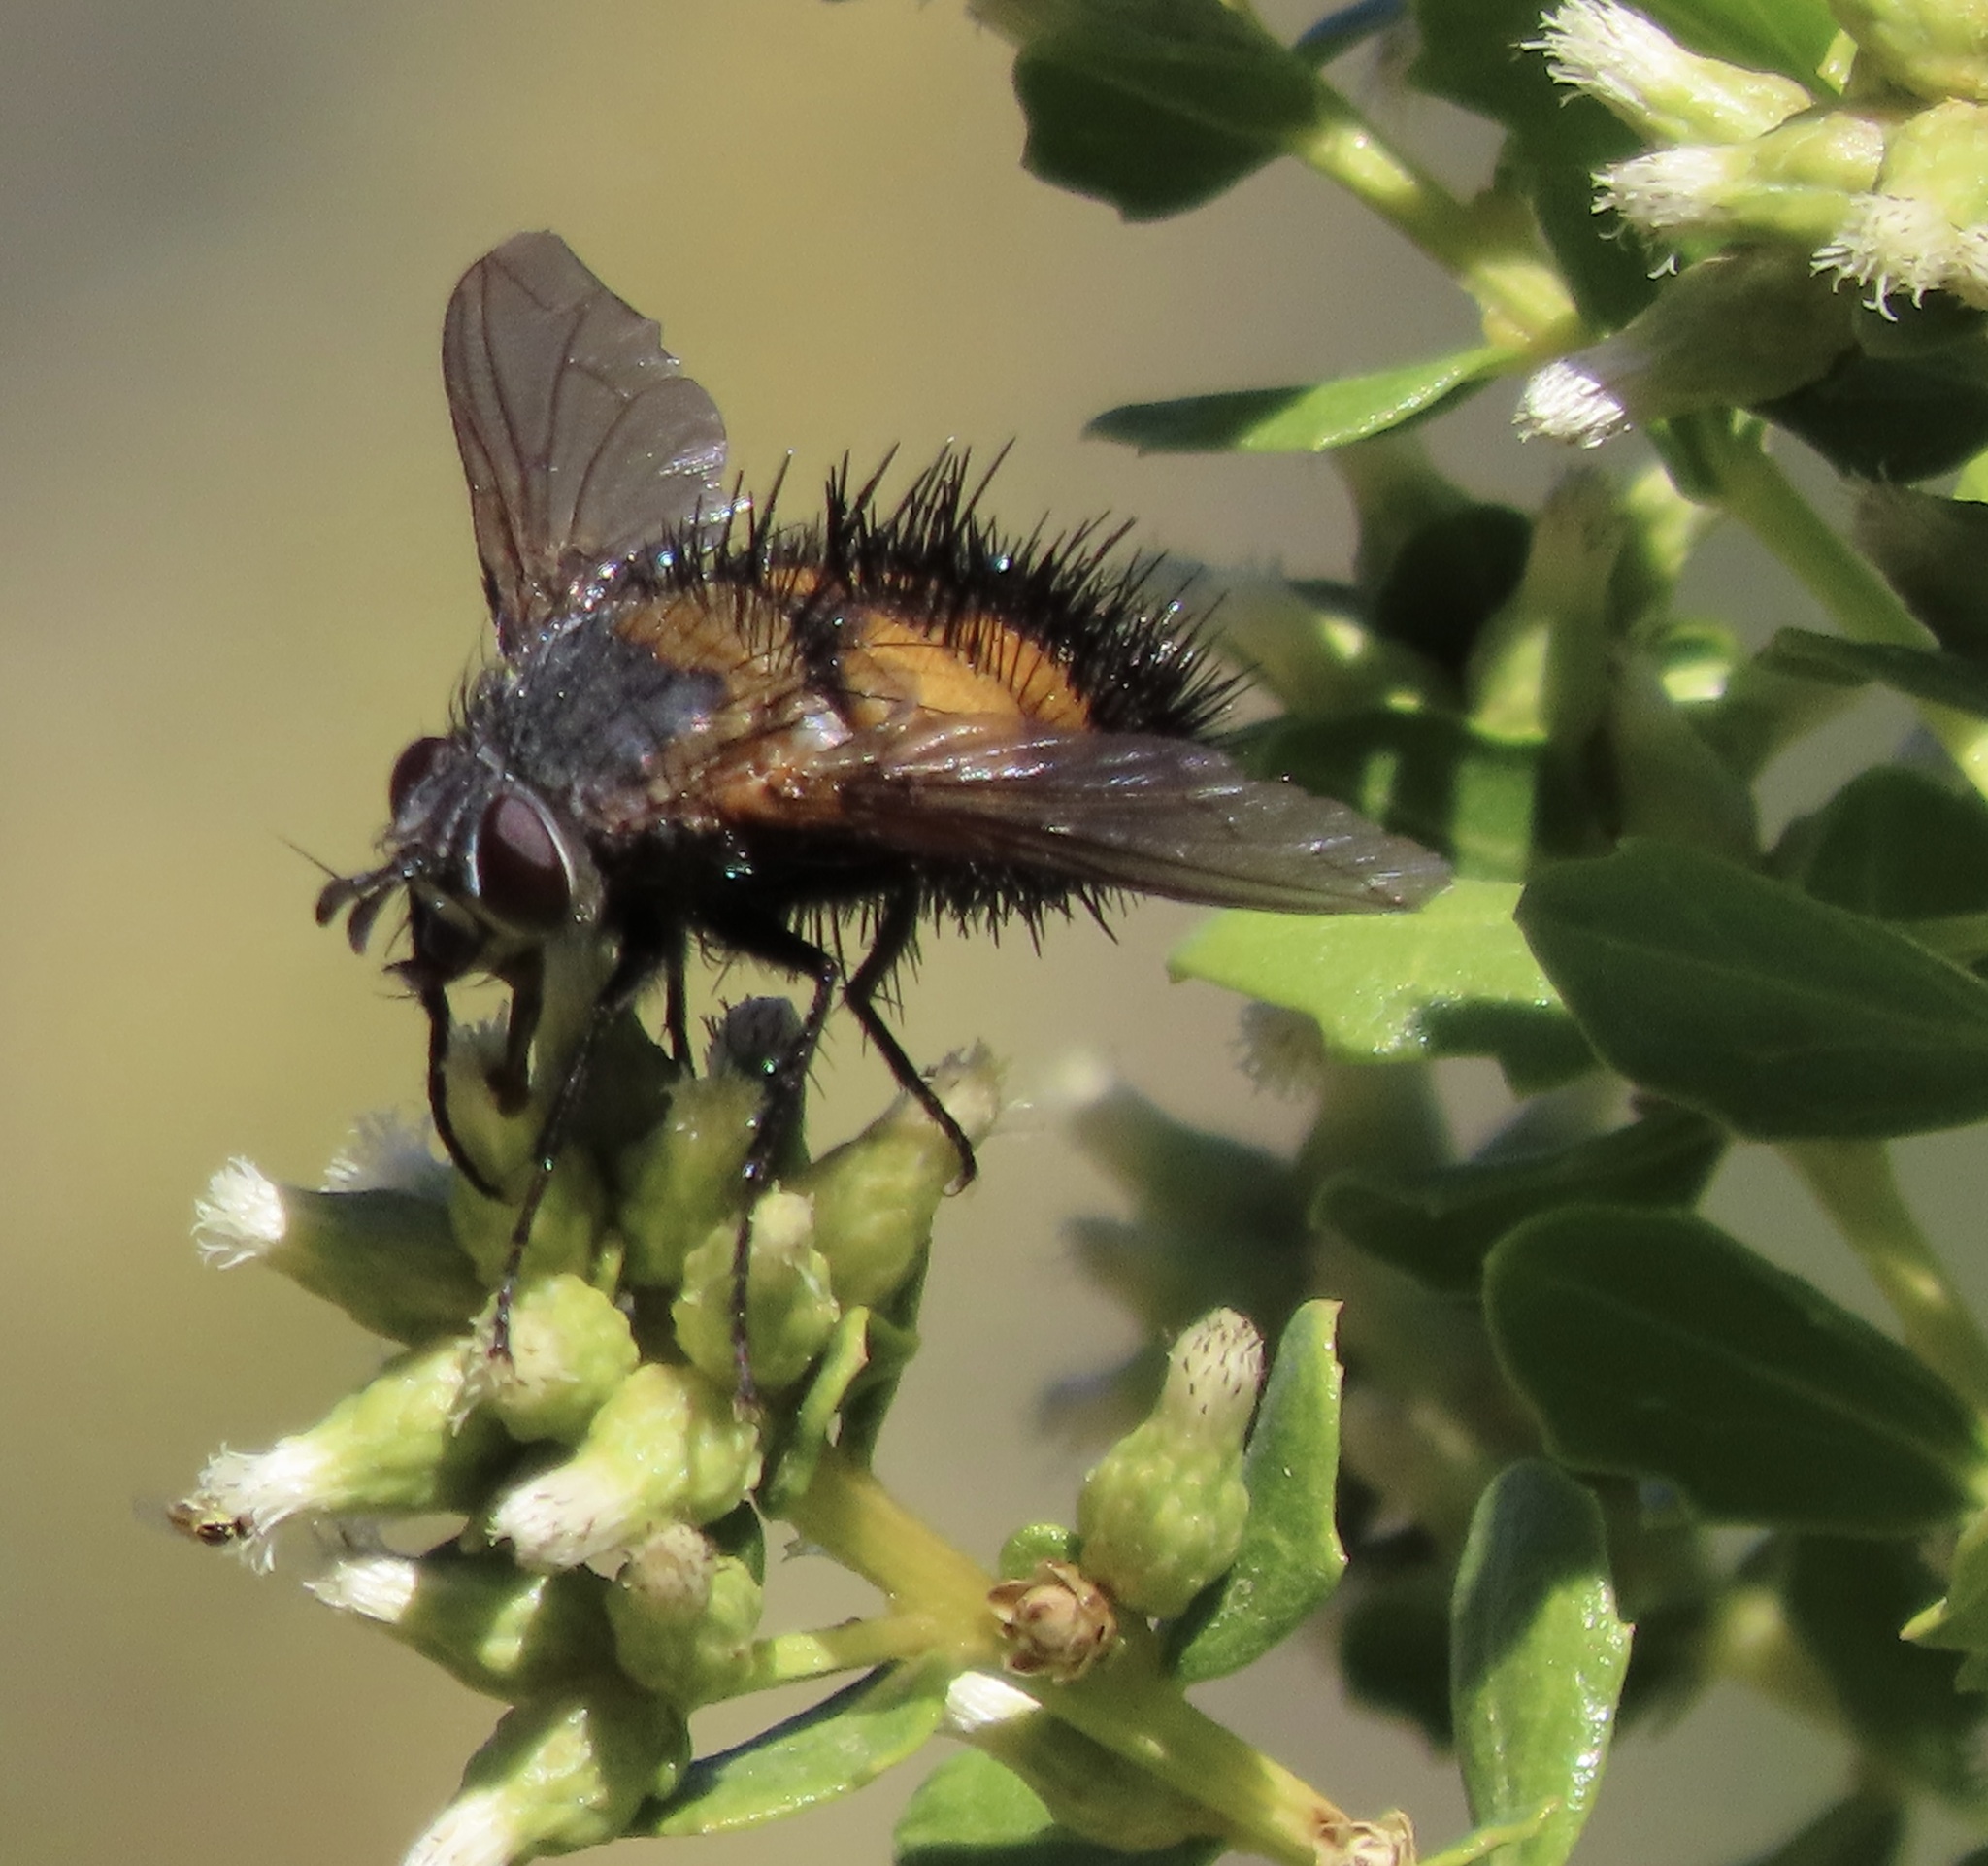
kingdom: Animalia
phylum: Arthropoda
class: Insecta
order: Diptera
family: Tachinidae
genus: Paradejeania
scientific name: Paradejeania rutilioides
